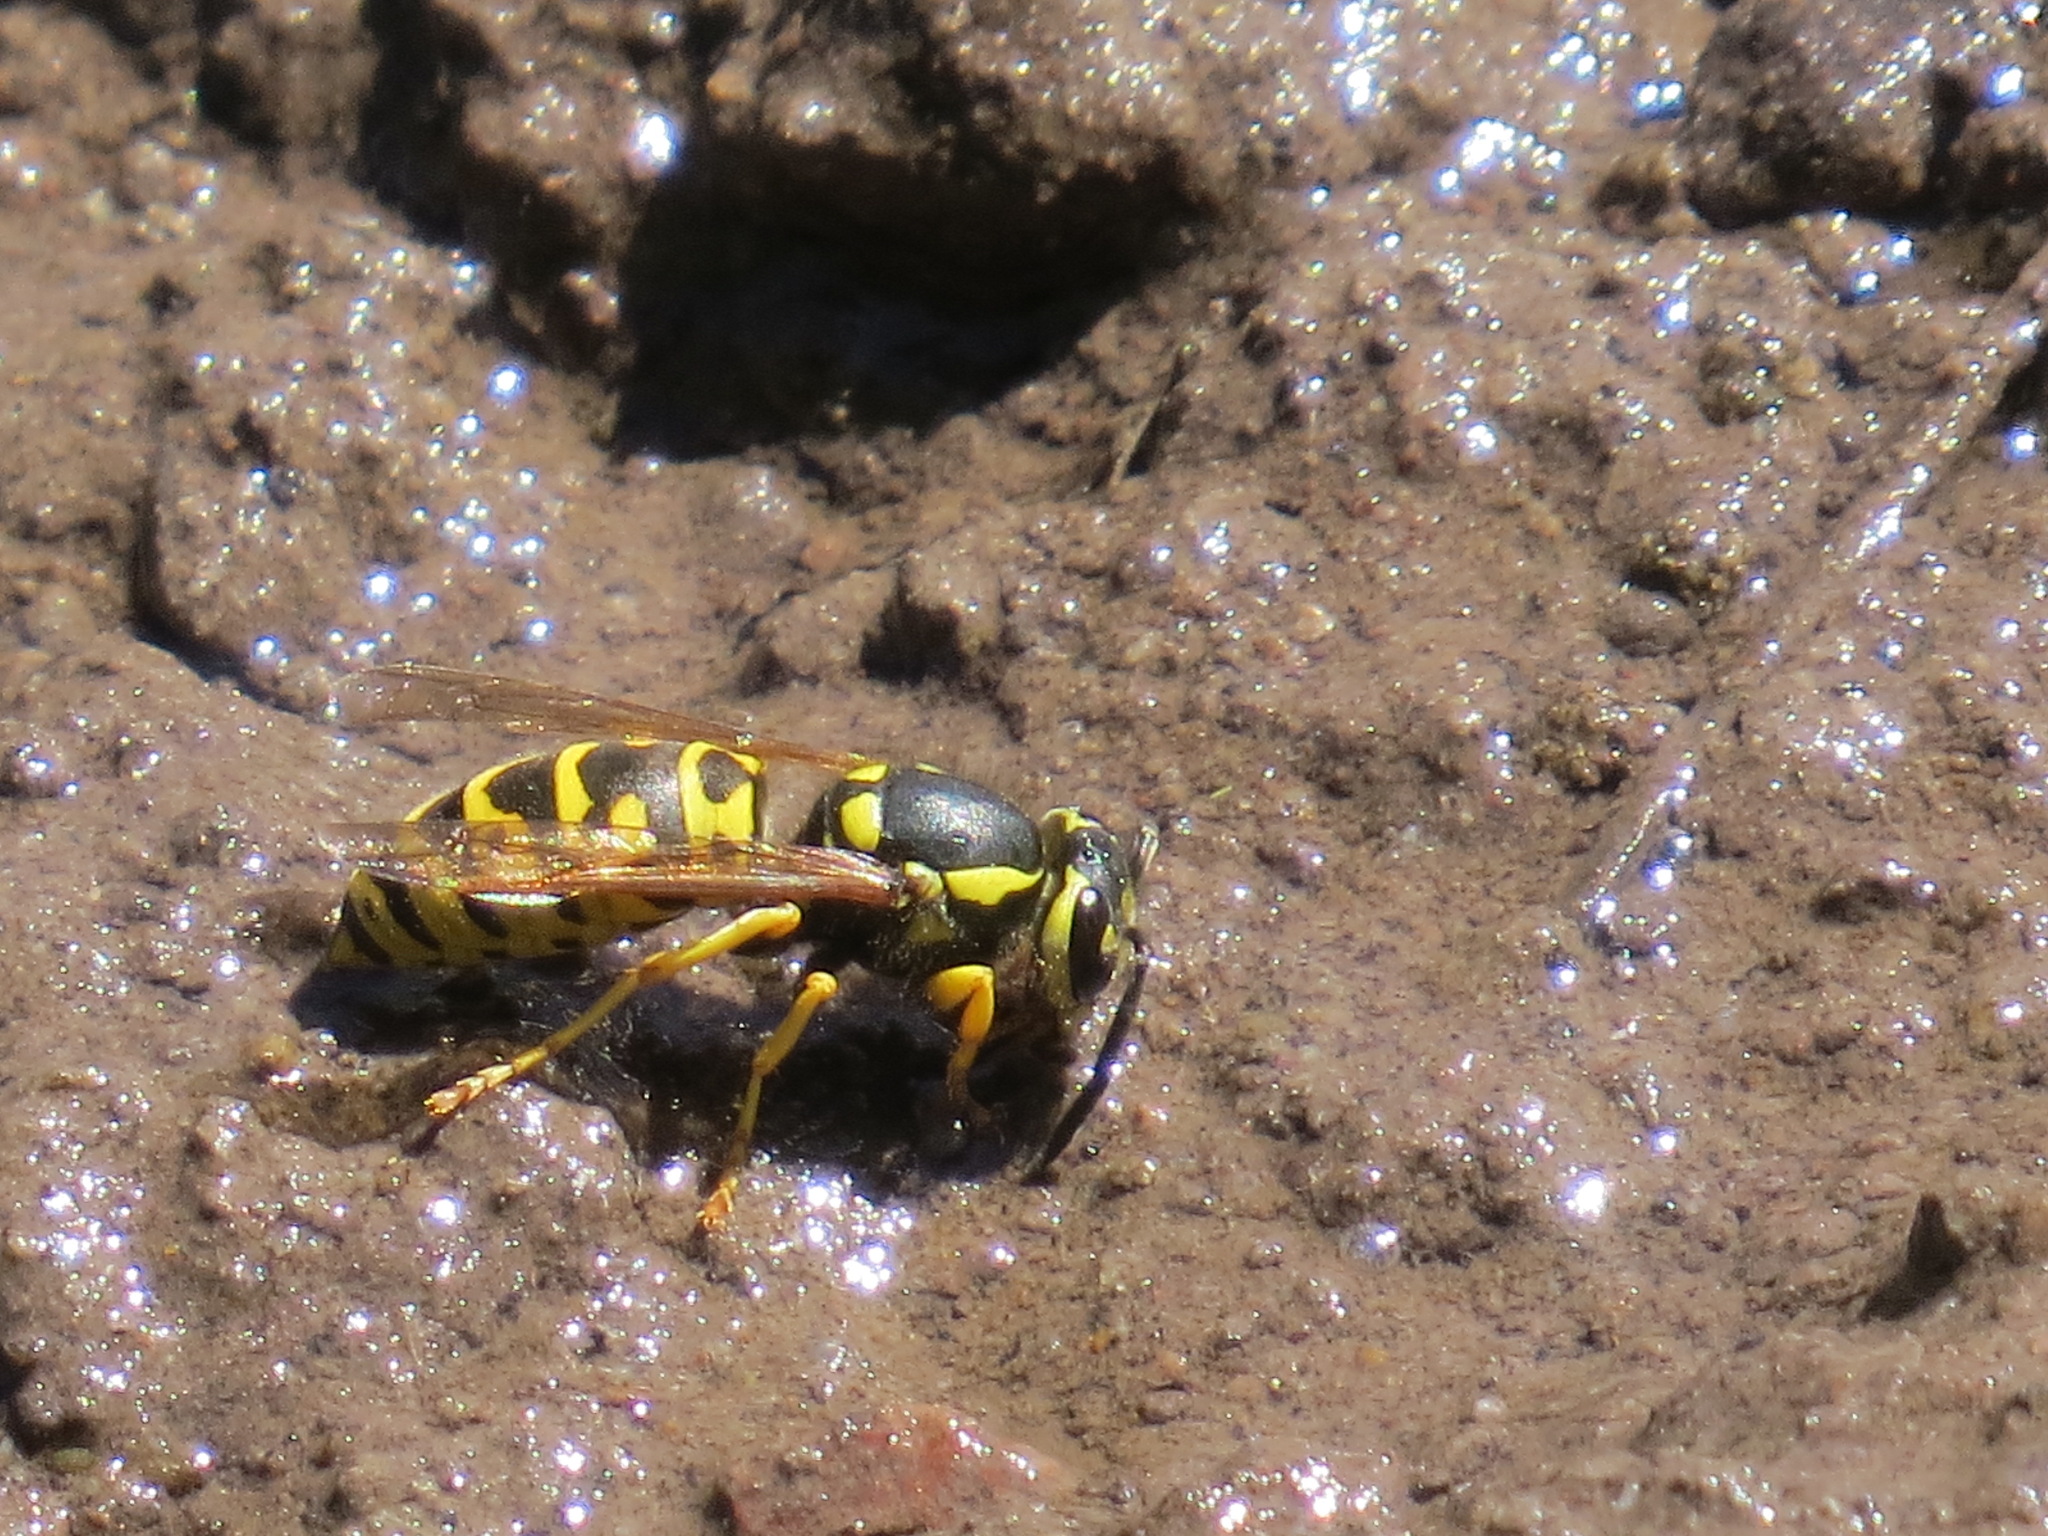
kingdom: Animalia
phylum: Arthropoda
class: Insecta
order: Hymenoptera
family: Vespidae
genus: Vespula
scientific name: Vespula atropilosa
